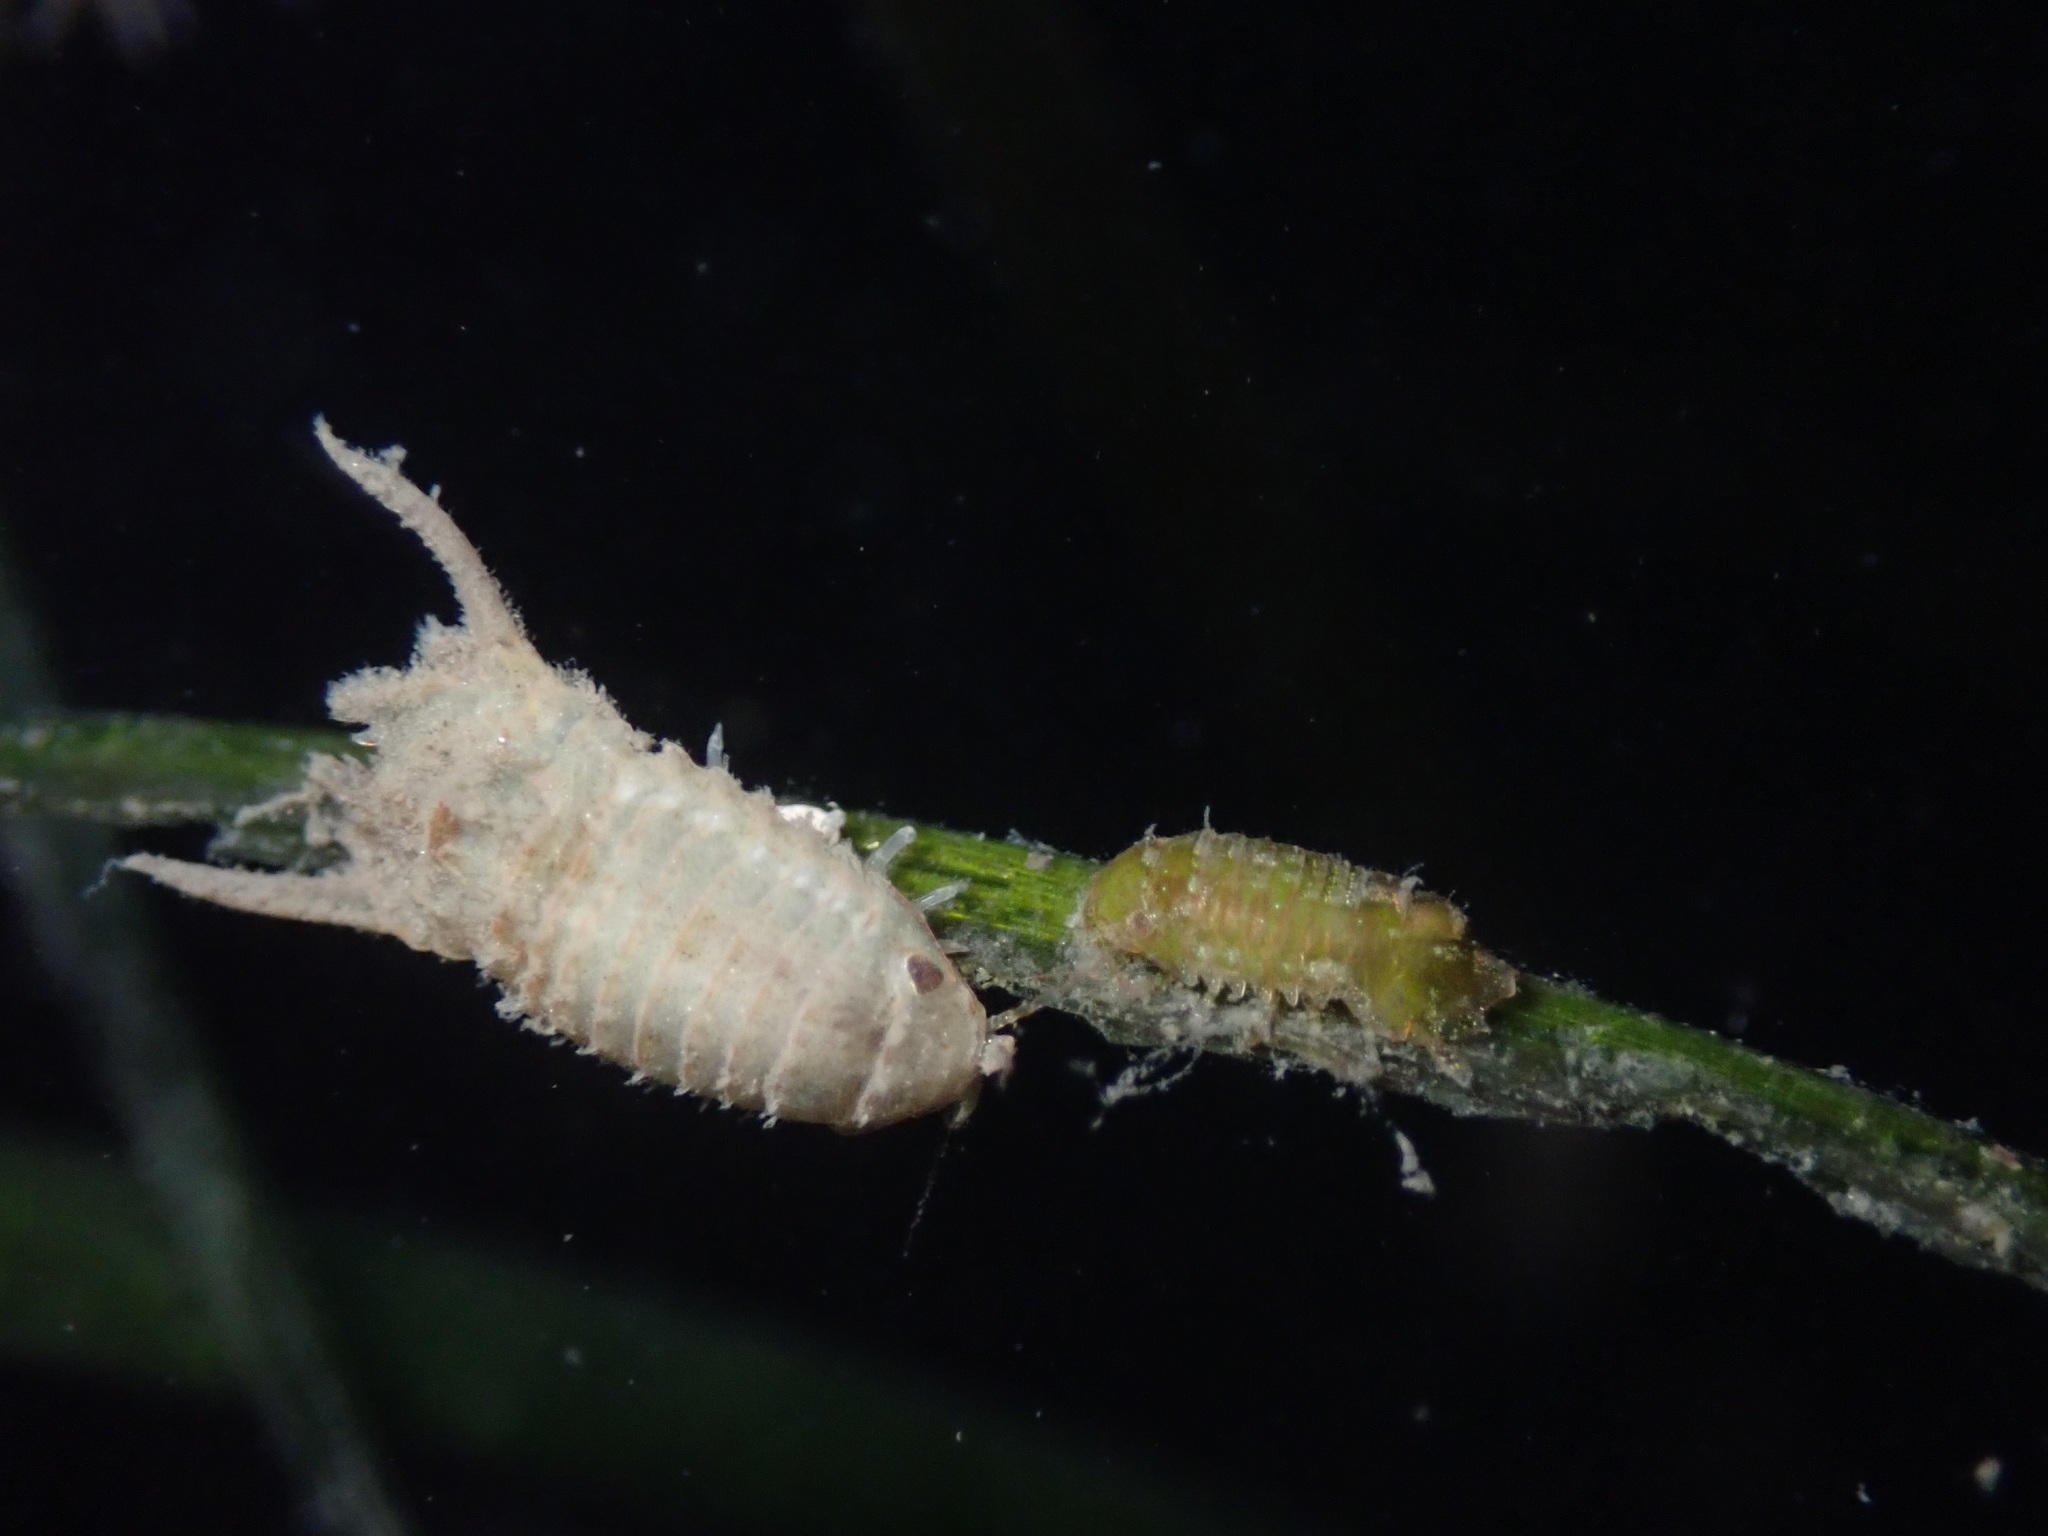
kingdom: Animalia
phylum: Arthropoda
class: Malacostraca
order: Isopoda
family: Sphaeromatidae
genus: Paracerceis
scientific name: Paracerceis sculpta
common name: Marine isopod
